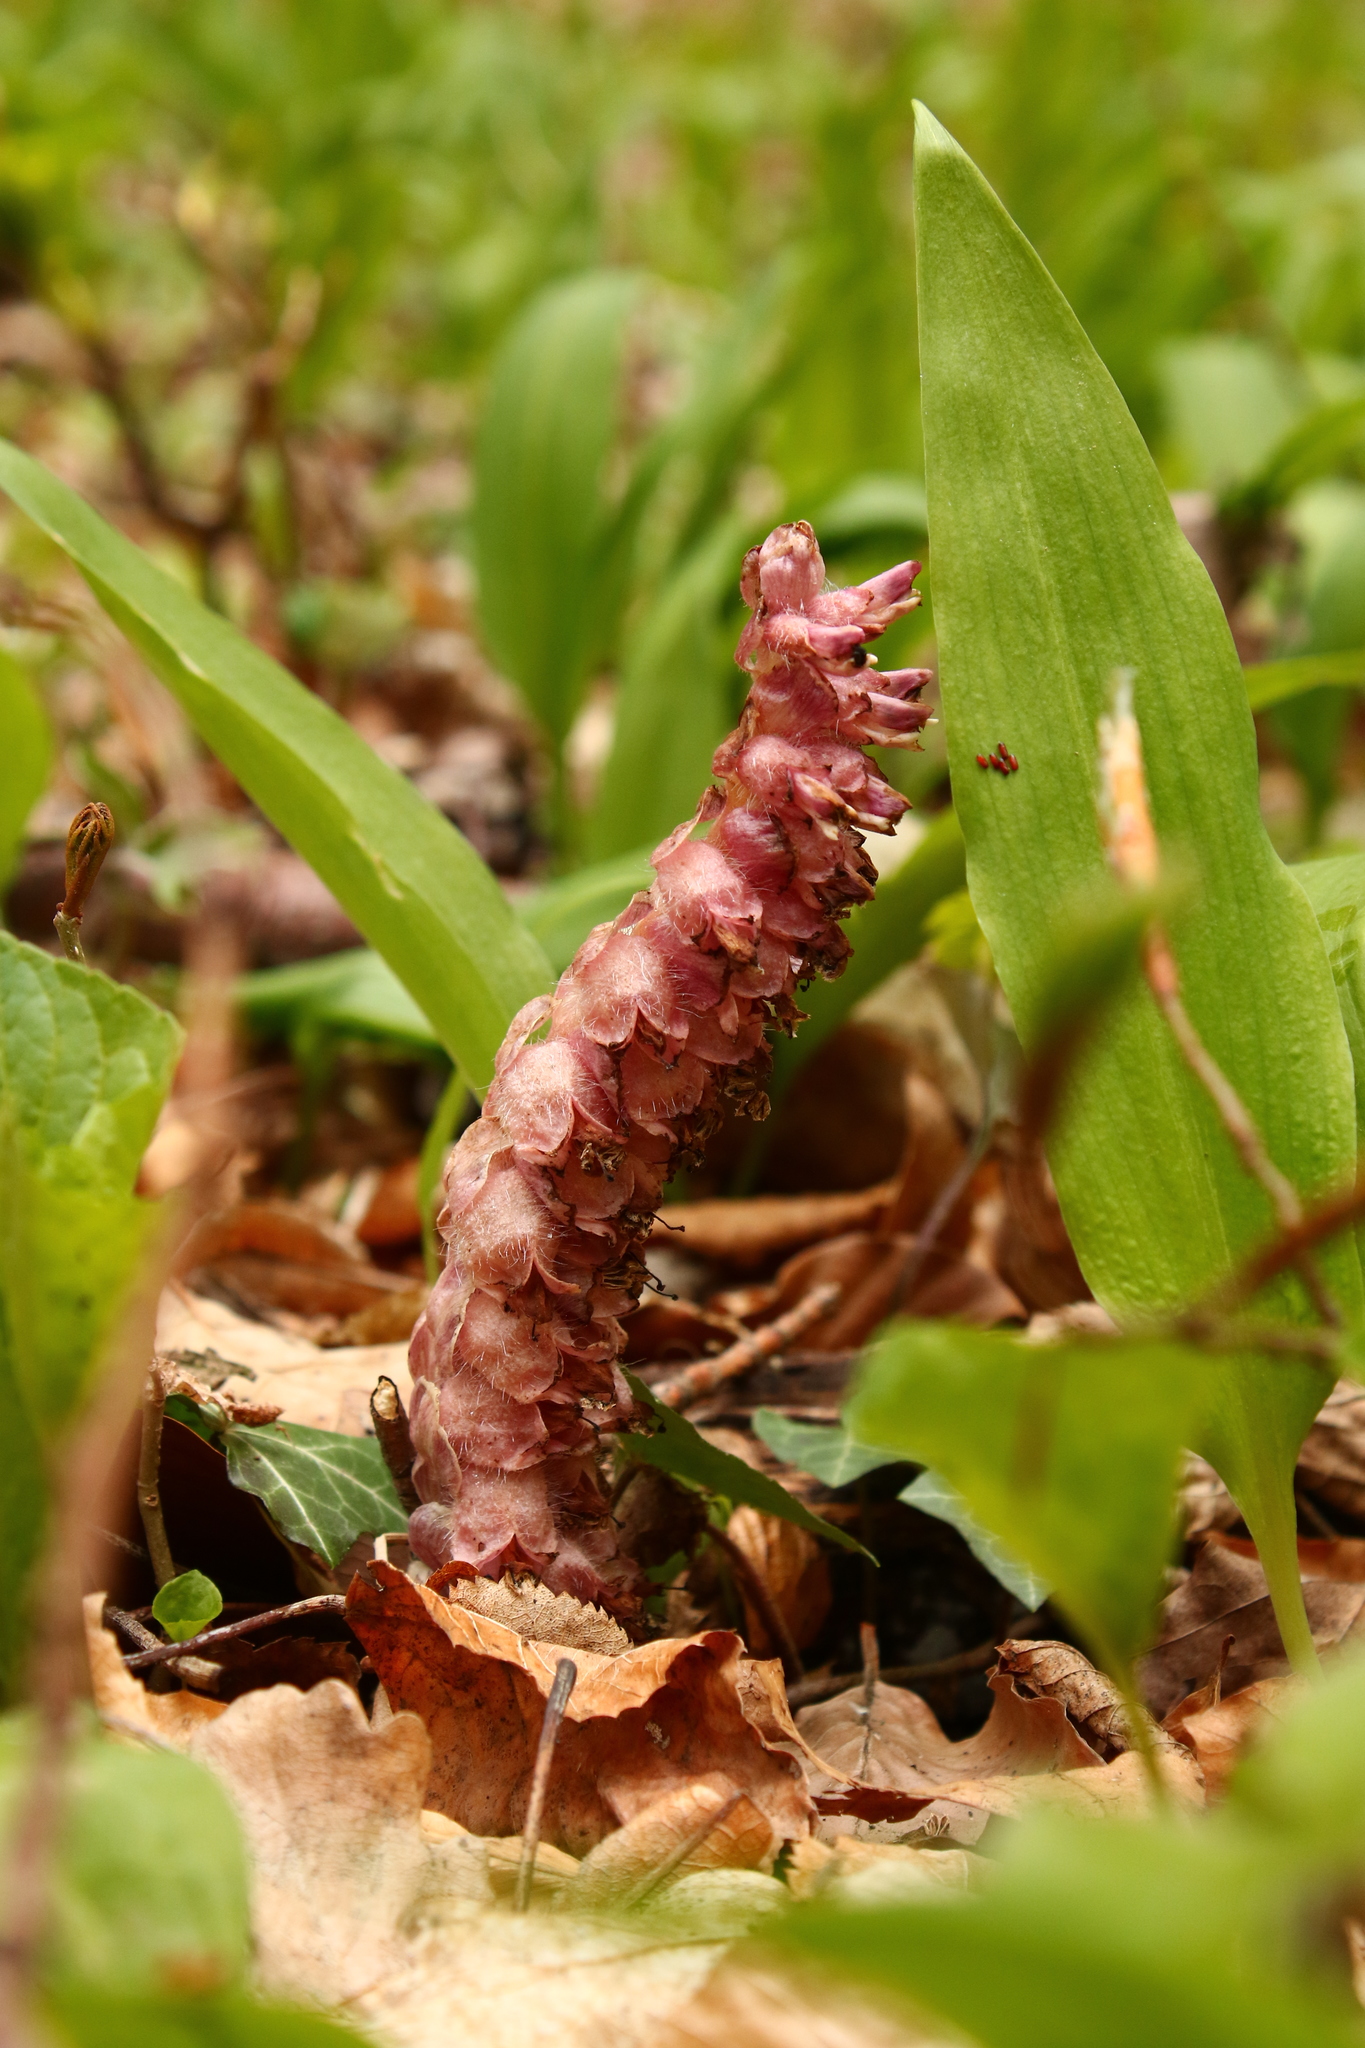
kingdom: Plantae
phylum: Tracheophyta
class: Magnoliopsida
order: Lamiales
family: Orobanchaceae
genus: Lathraea
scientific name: Lathraea squamaria
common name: Toothwort
